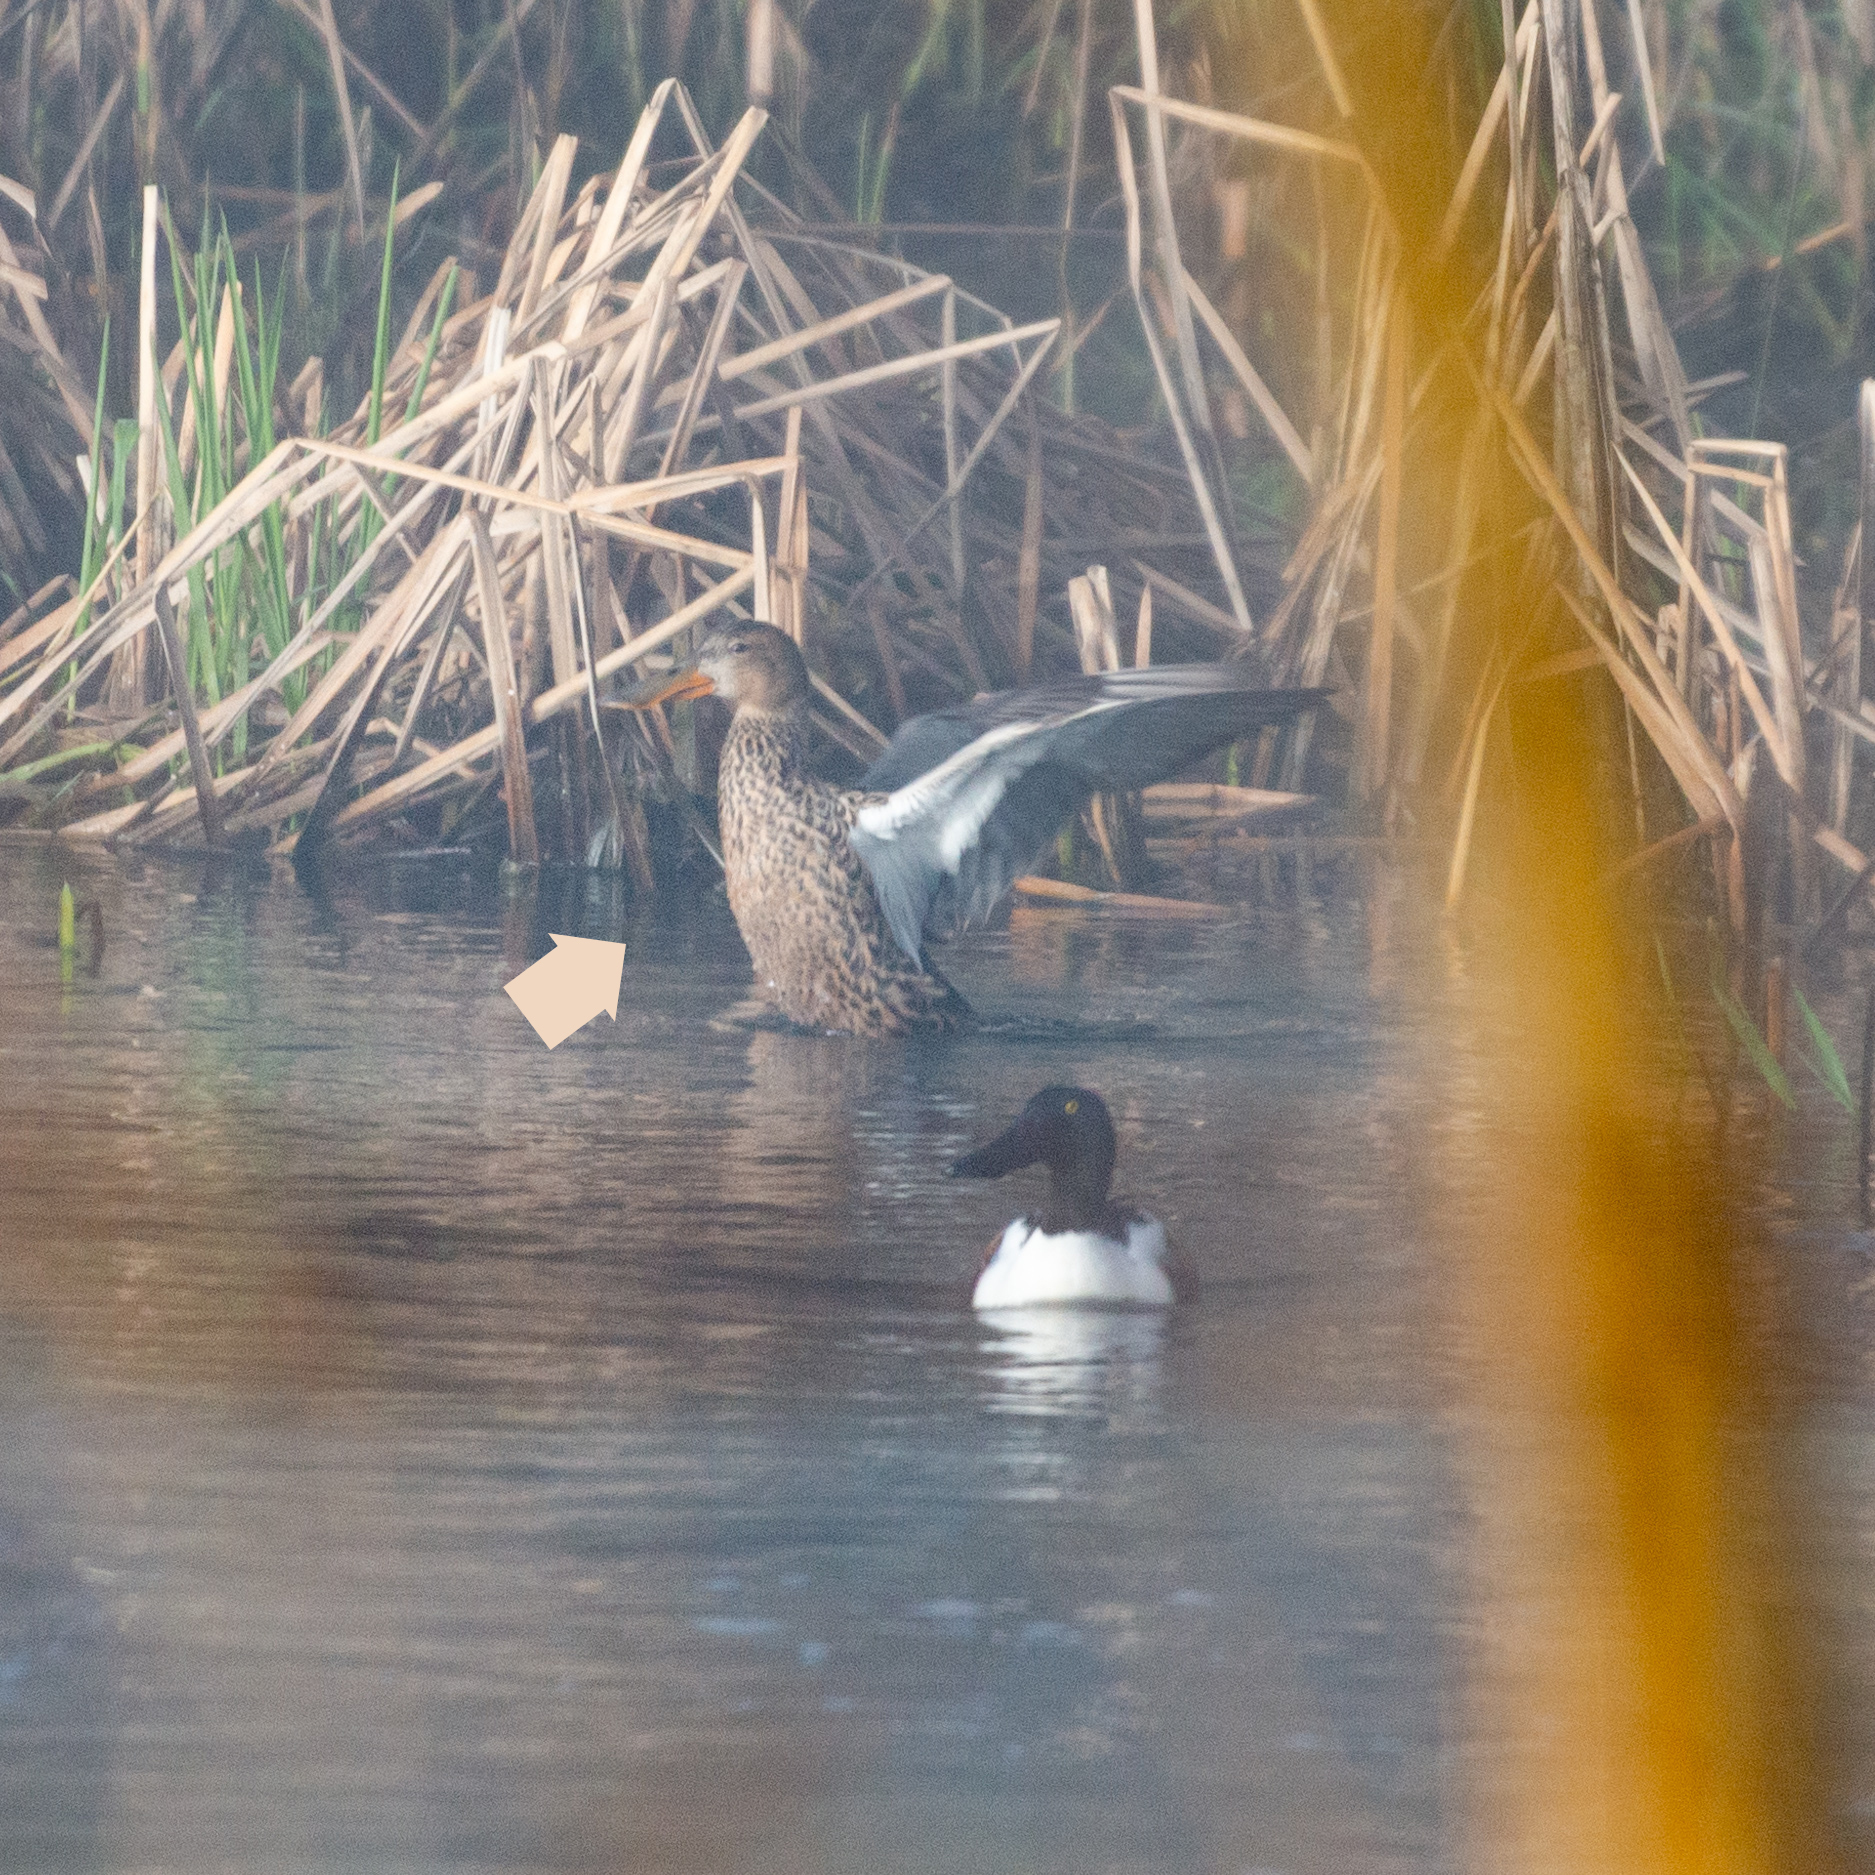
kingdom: Animalia
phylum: Chordata
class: Aves
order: Anseriformes
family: Anatidae
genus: Spatula
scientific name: Spatula clypeata
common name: Northern shoveler
